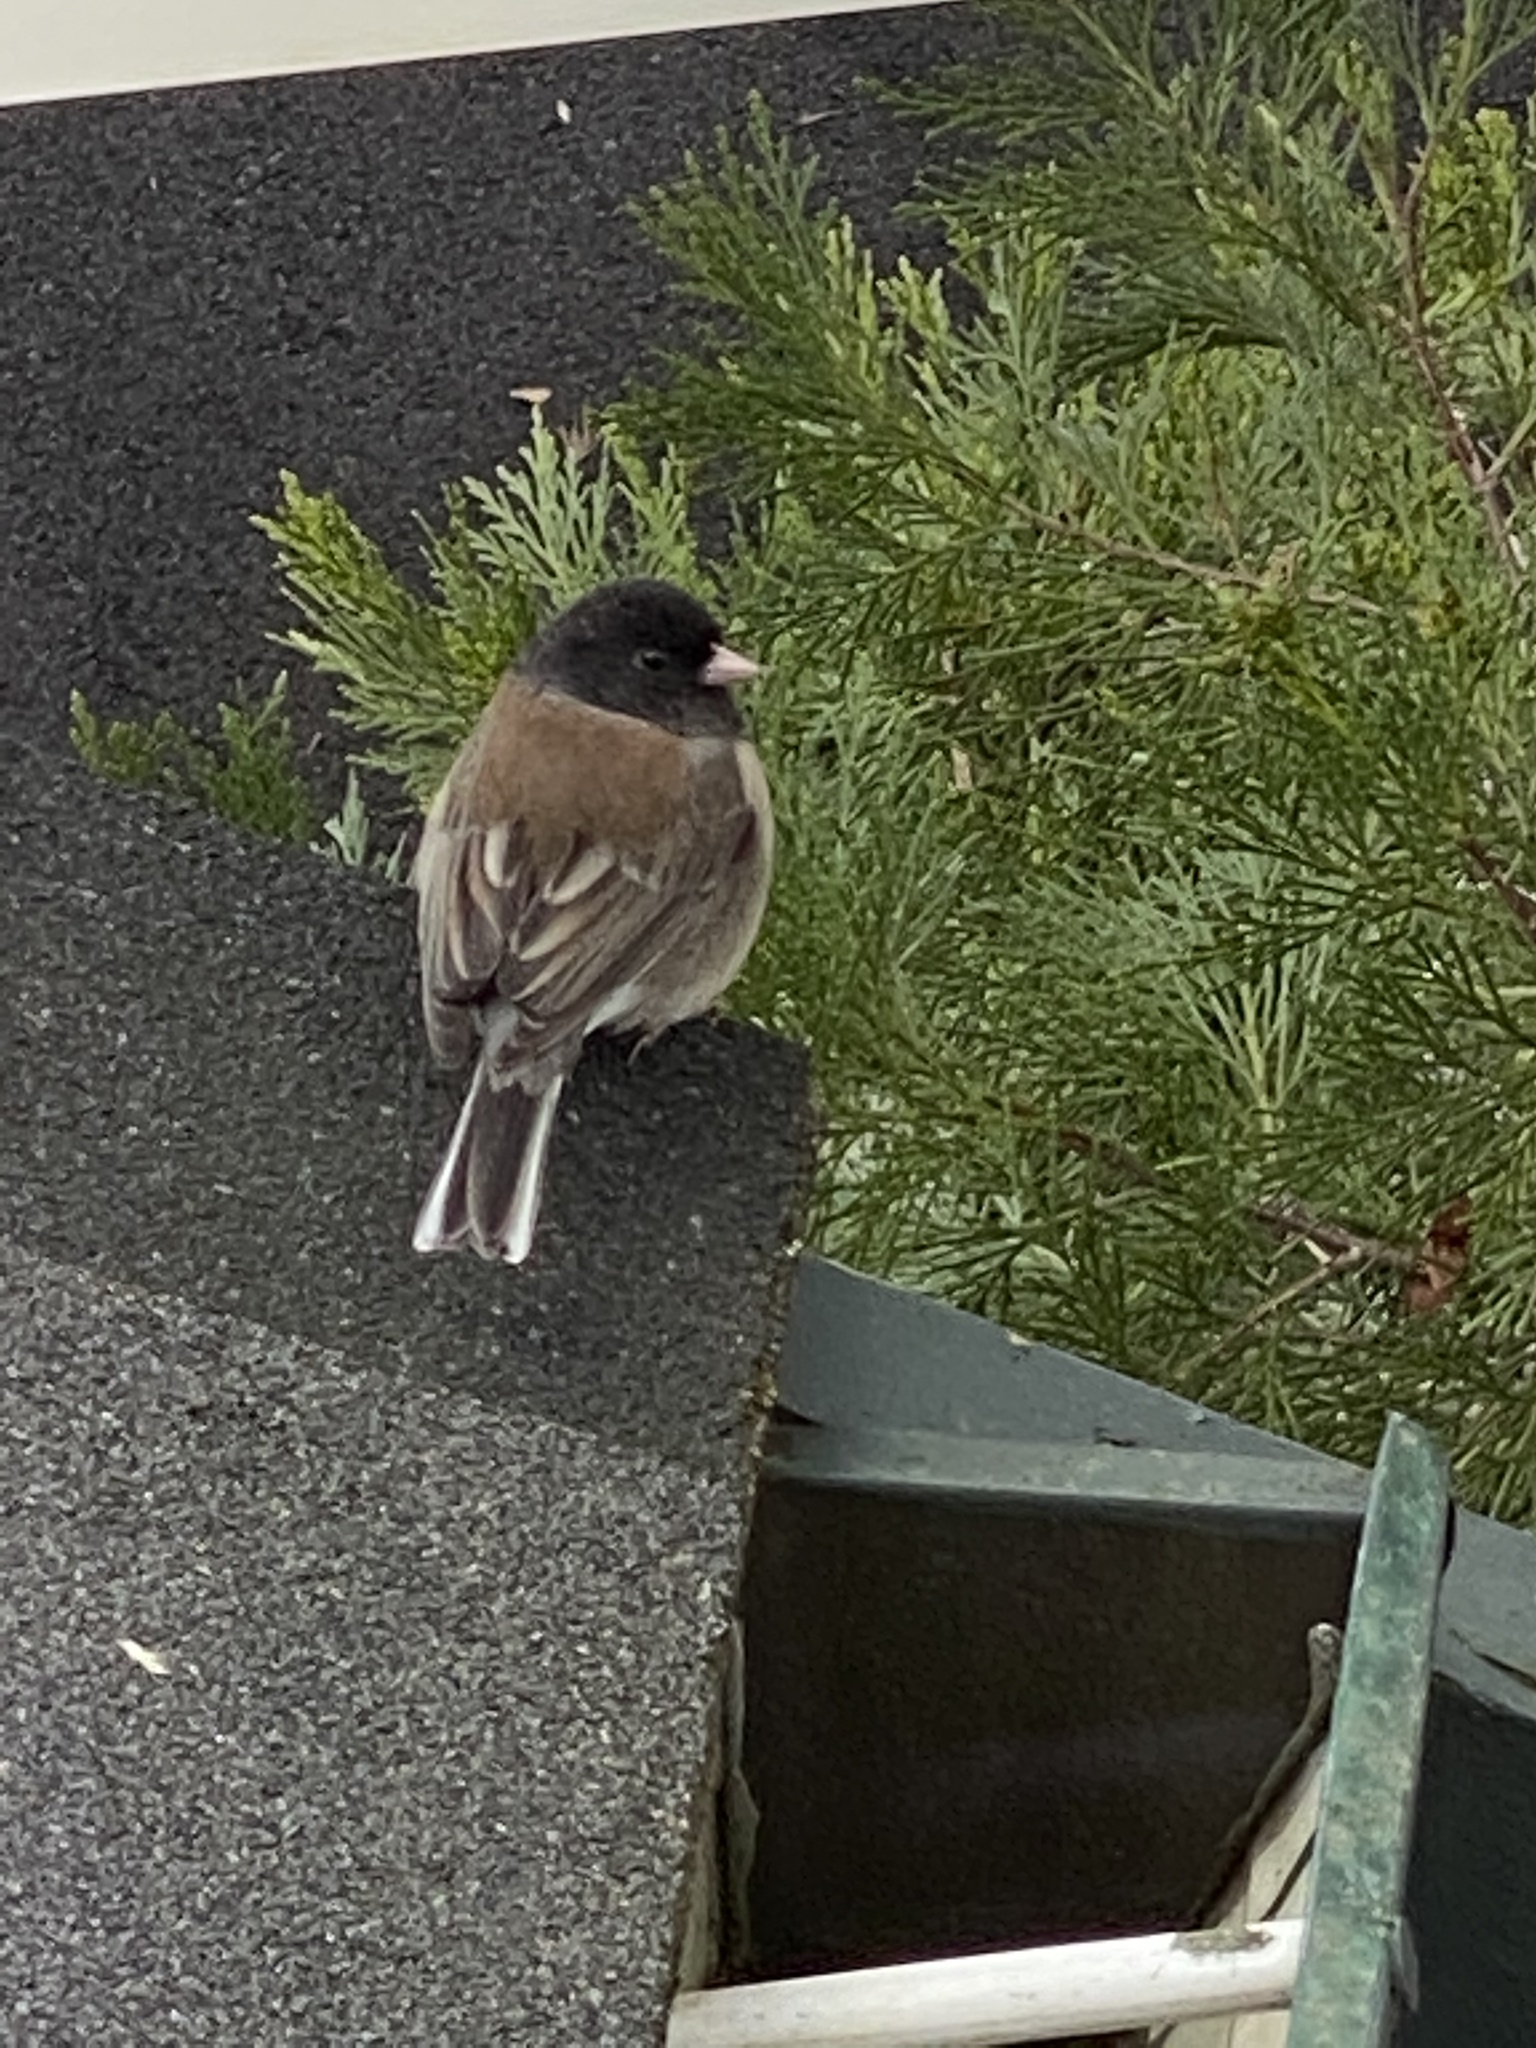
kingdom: Animalia
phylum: Chordata
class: Aves
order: Passeriformes
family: Passerellidae
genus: Junco
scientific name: Junco hyemalis
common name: Dark-eyed junco
